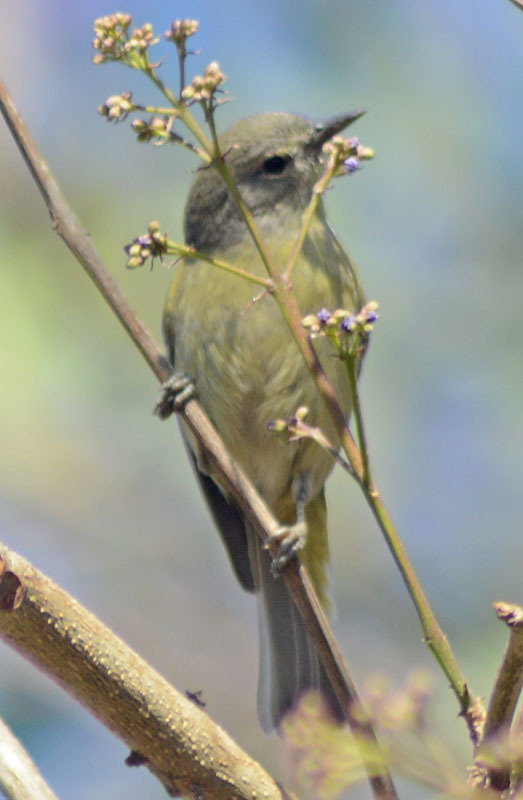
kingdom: Animalia
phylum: Chordata
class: Aves
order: Passeriformes
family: Parulidae
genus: Leiothlypis
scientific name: Leiothlypis celata
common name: Orange-crowned warbler
